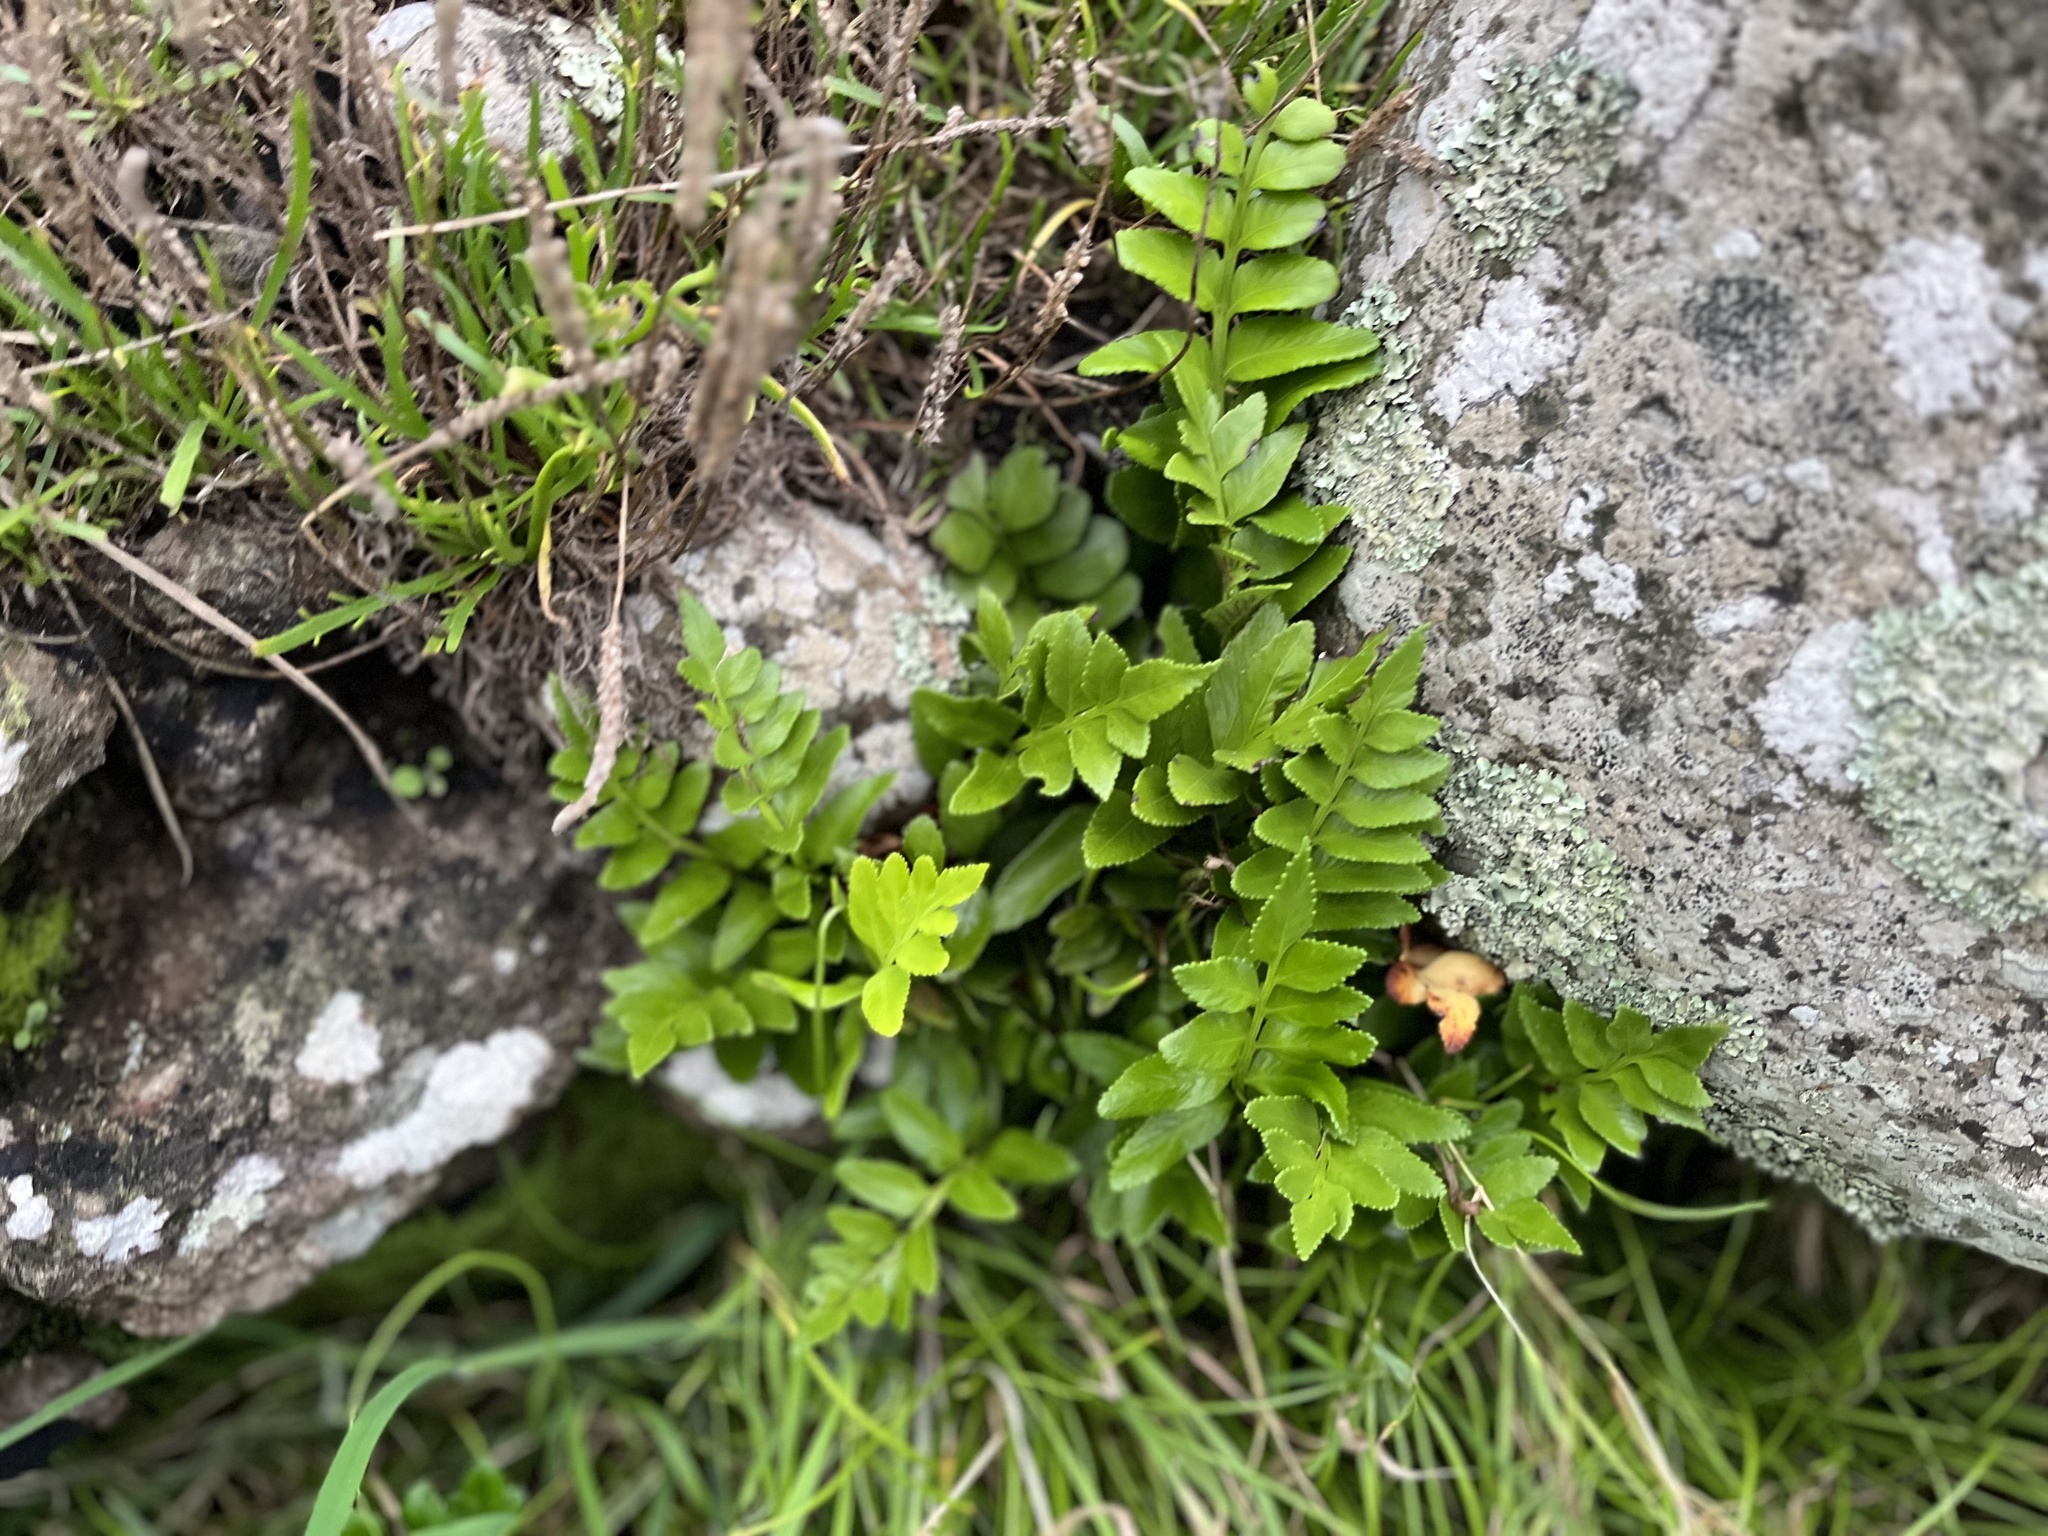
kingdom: Plantae
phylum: Tracheophyta
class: Polypodiopsida
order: Polypodiales
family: Aspleniaceae
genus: Asplenium
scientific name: Asplenium obtusatum
